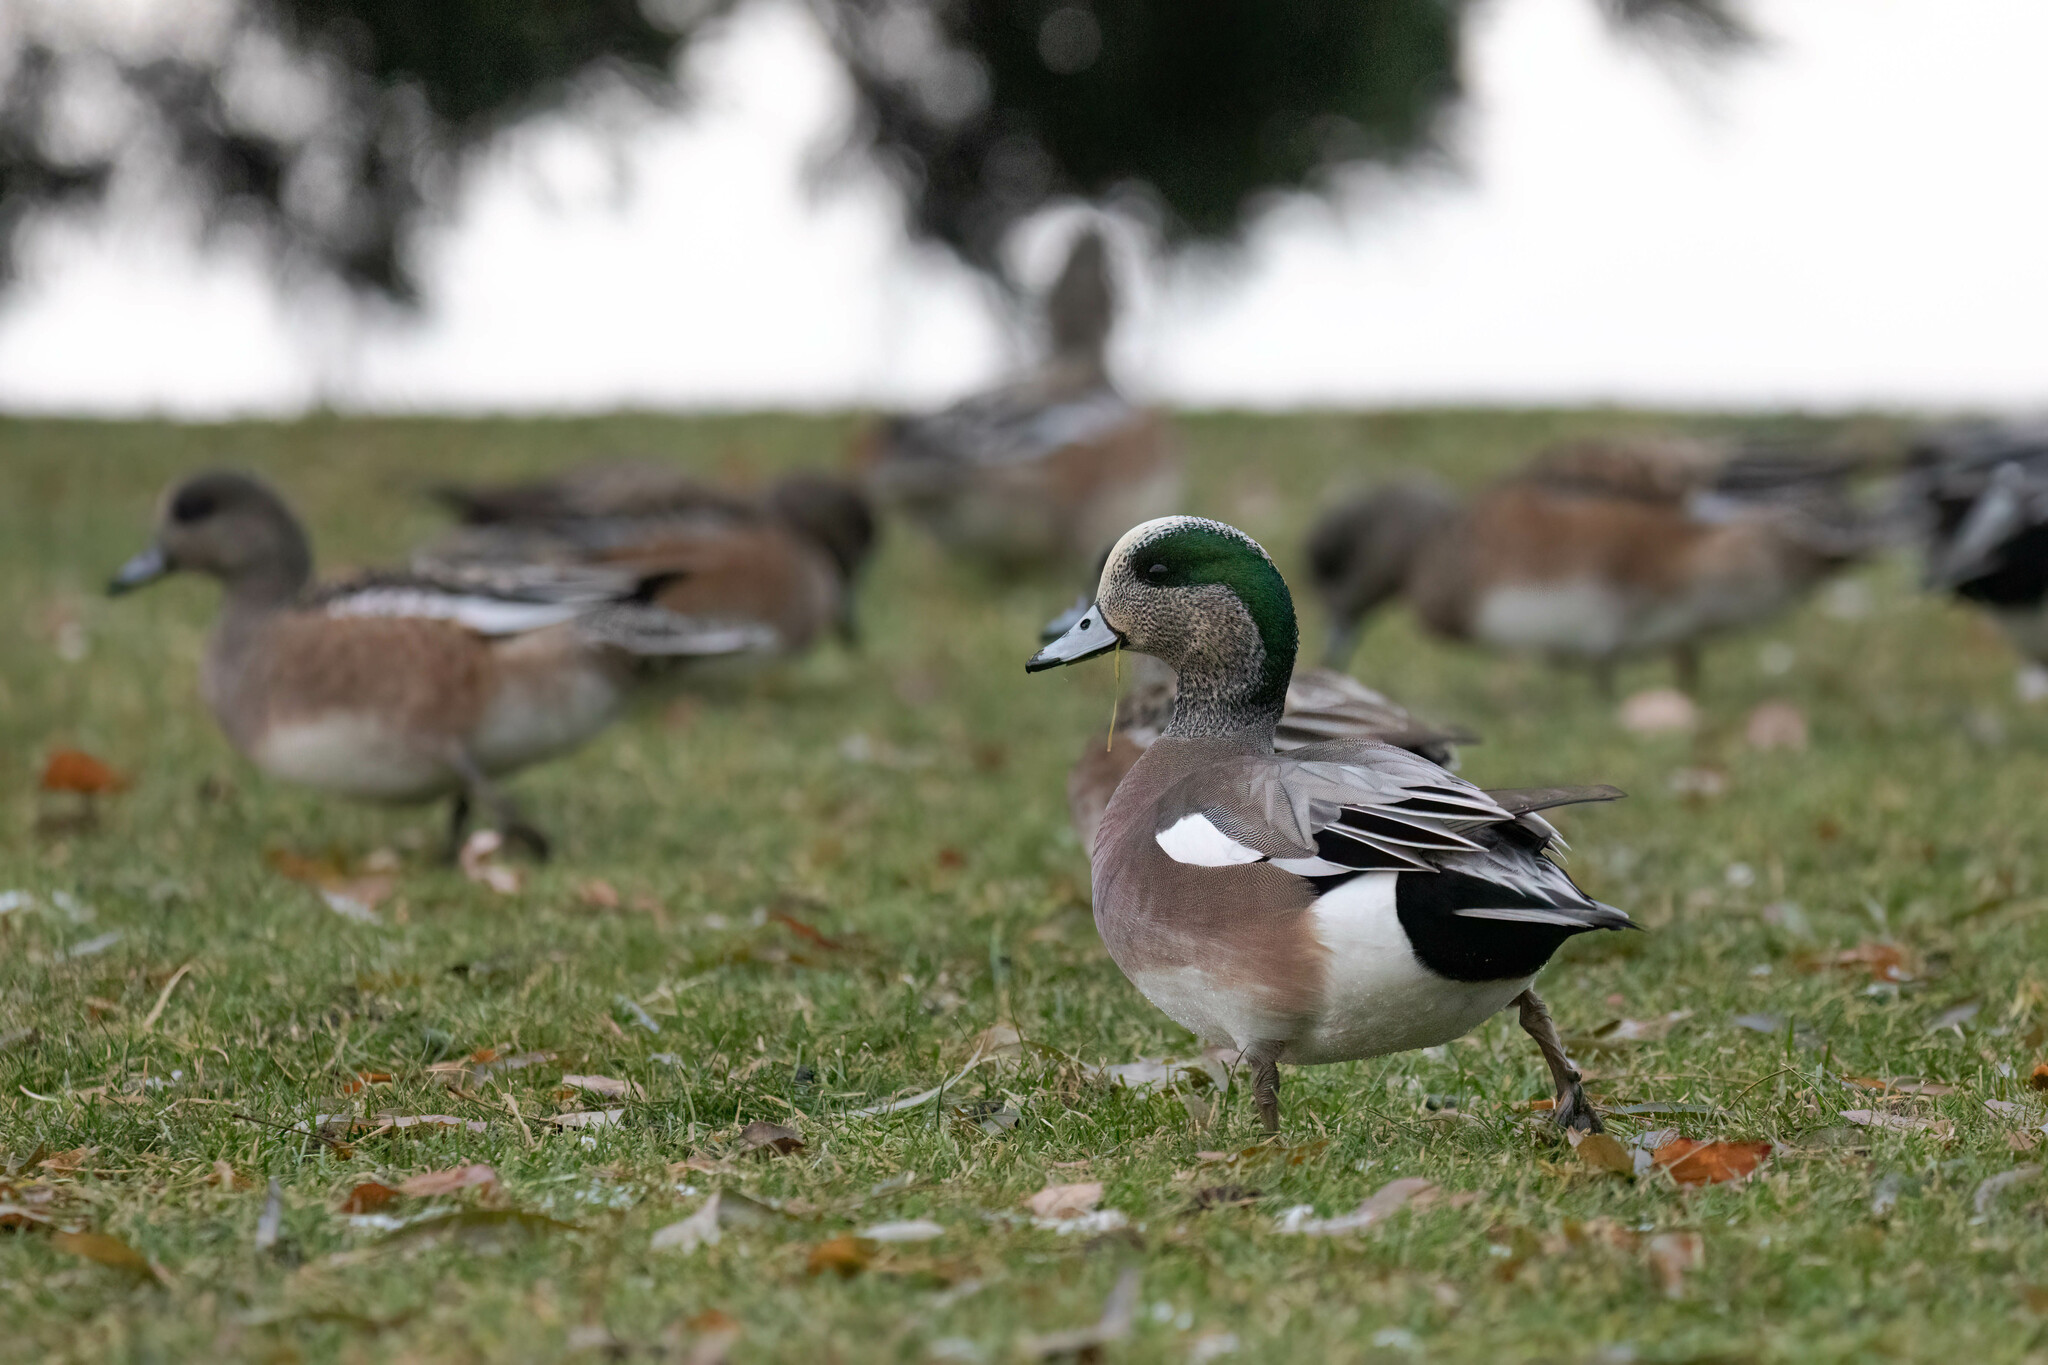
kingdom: Animalia
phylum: Chordata
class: Aves
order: Anseriformes
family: Anatidae
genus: Mareca
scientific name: Mareca americana
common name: American wigeon
